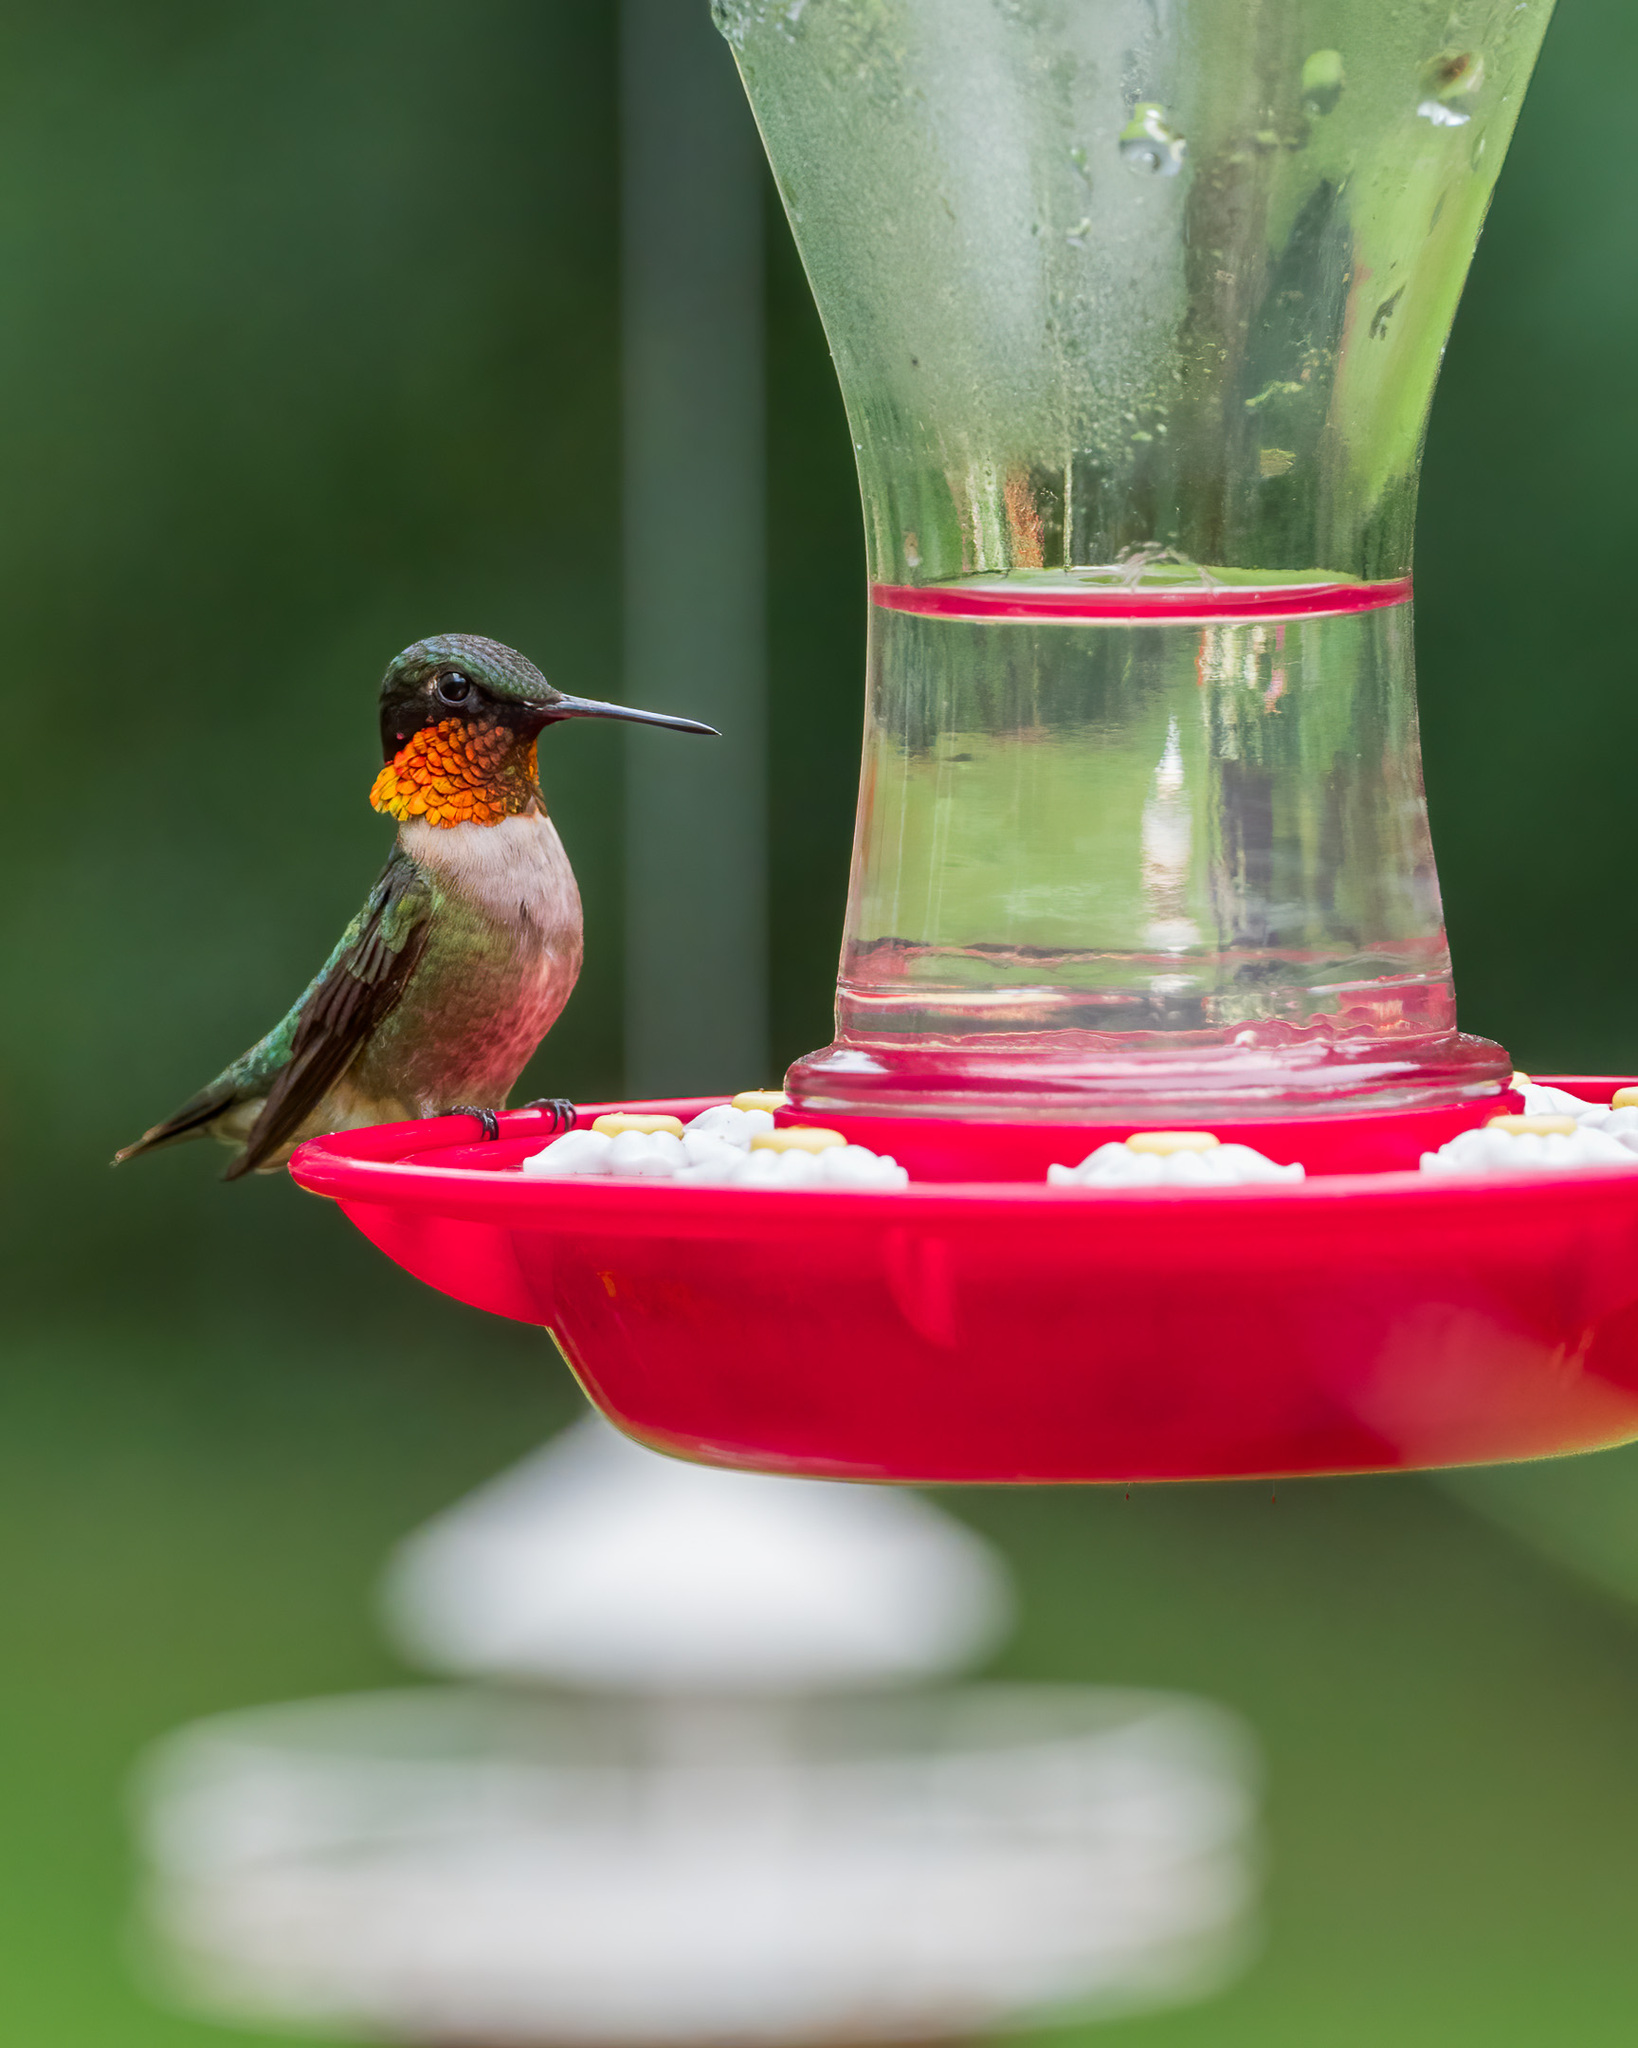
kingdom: Animalia
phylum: Chordata
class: Aves
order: Apodiformes
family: Trochilidae
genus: Archilochus
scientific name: Archilochus colubris
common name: Ruby-throated hummingbird
